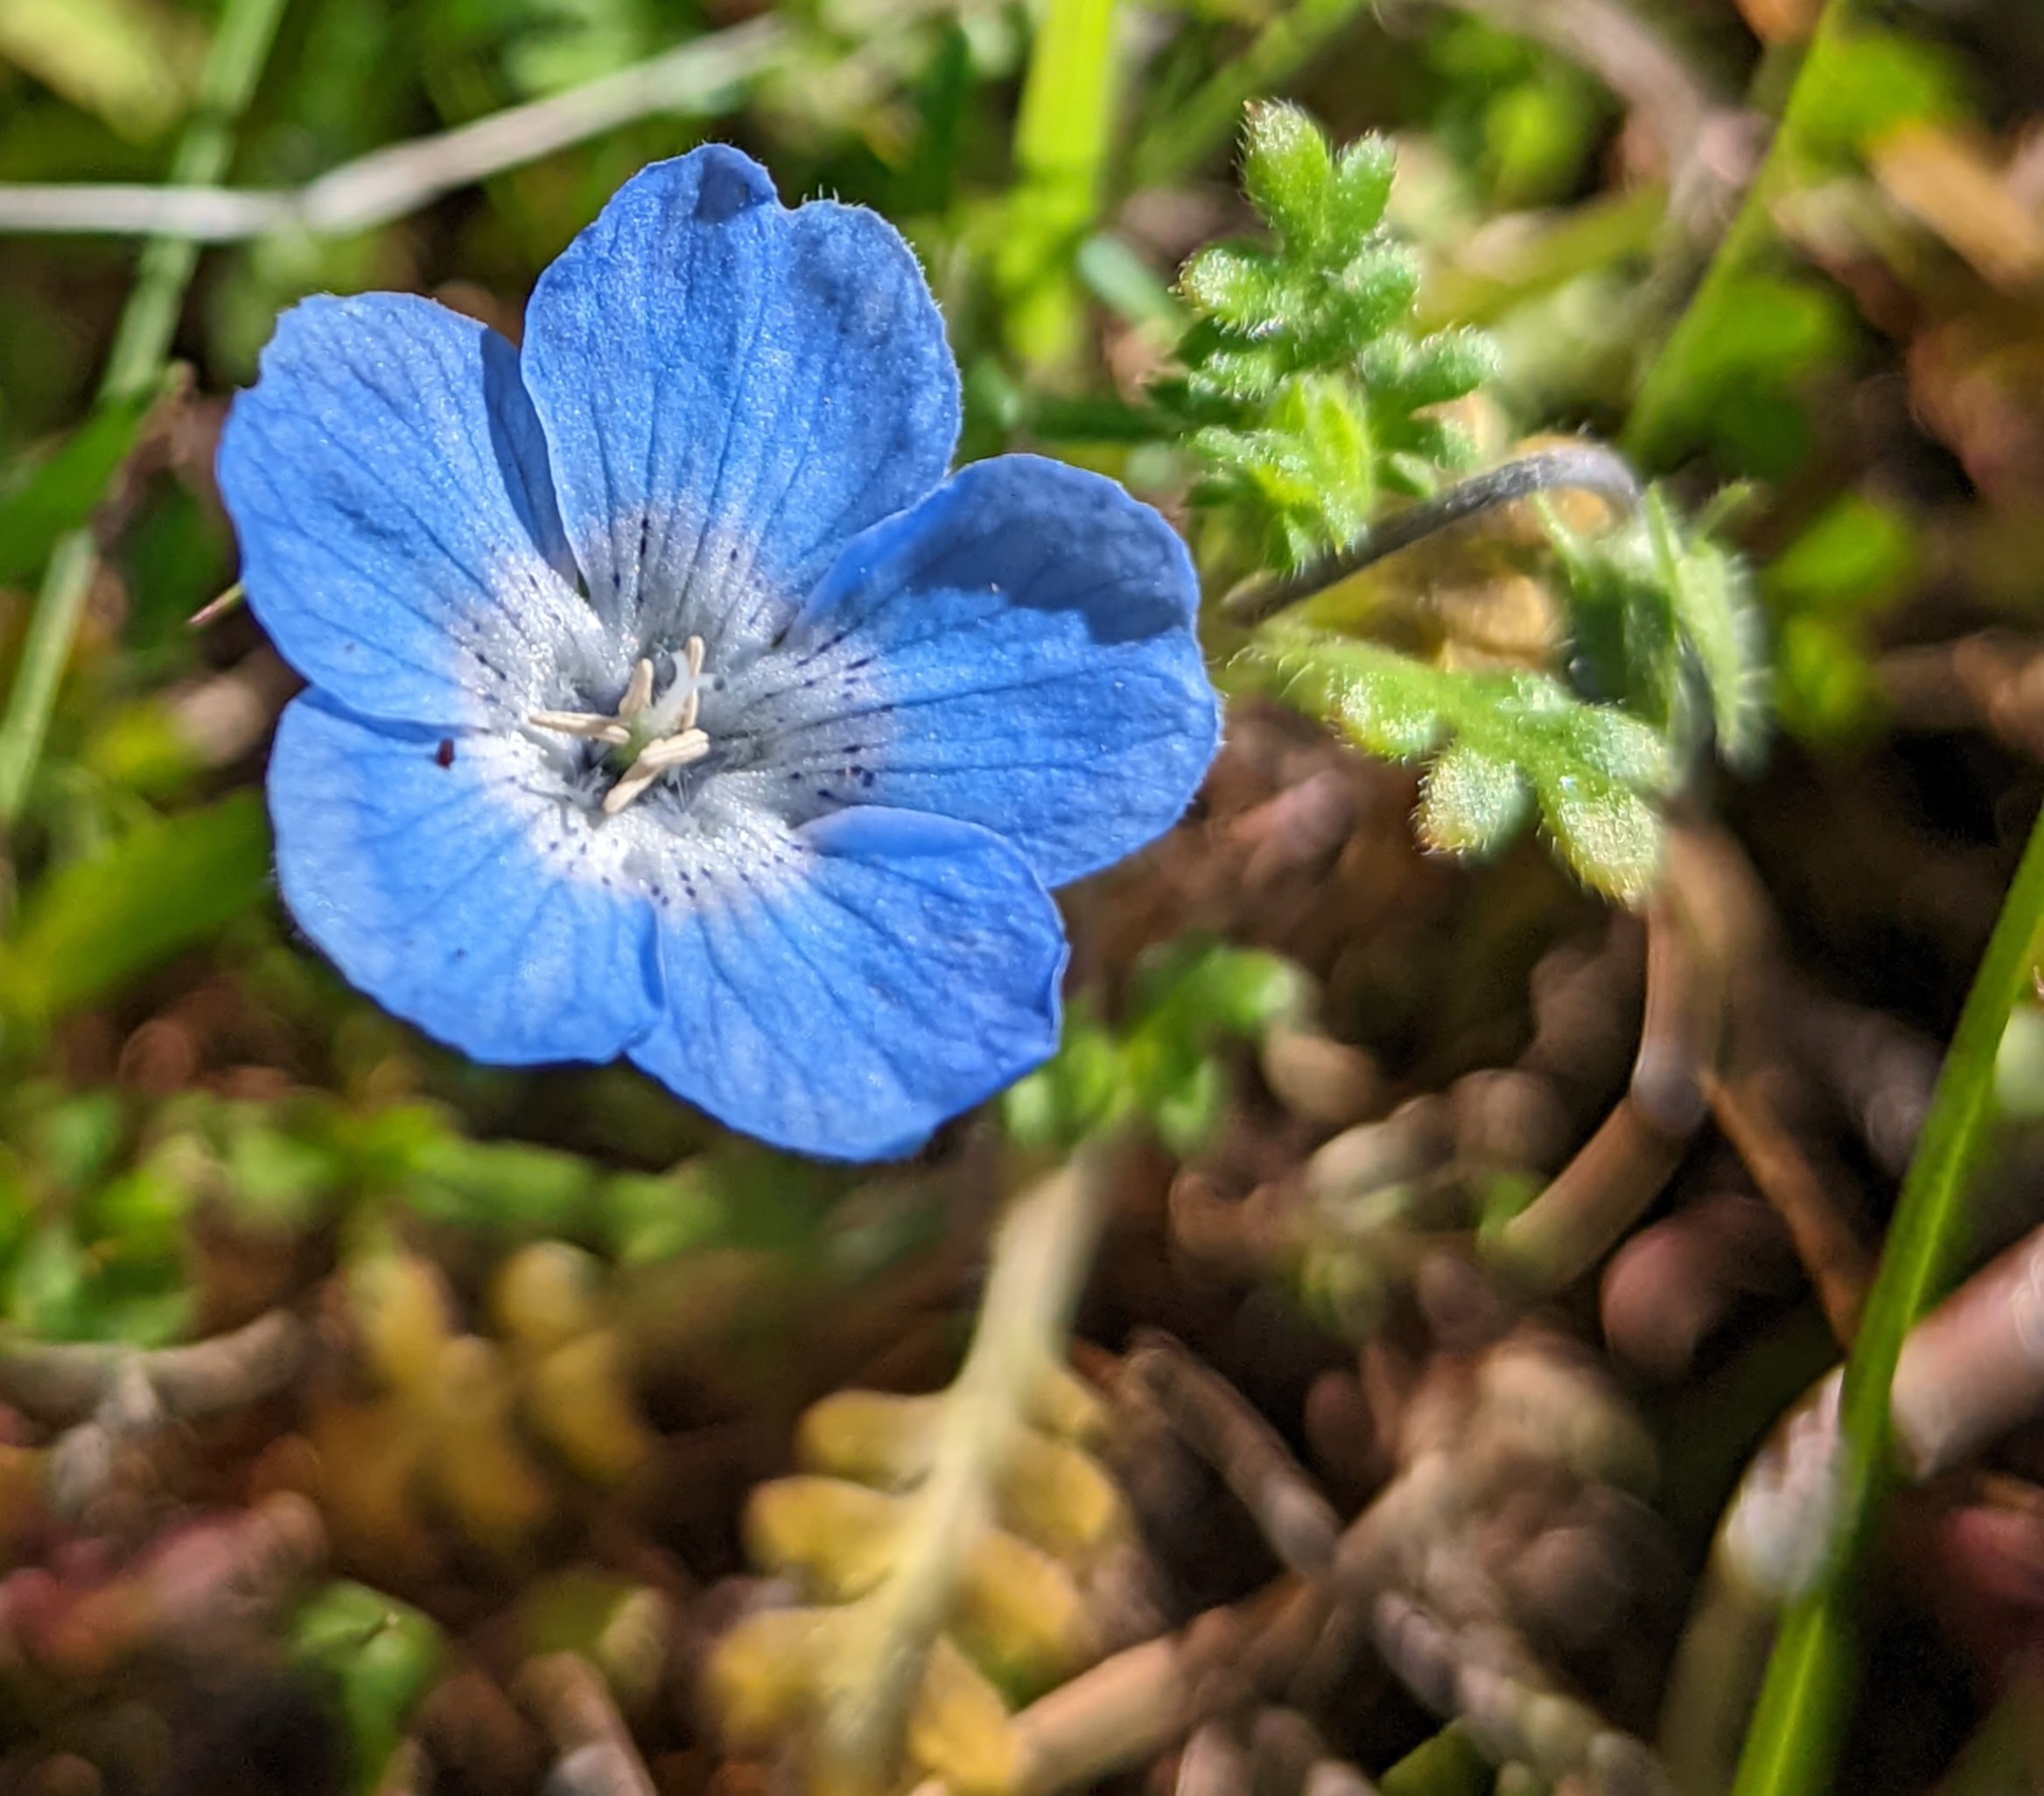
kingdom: Plantae
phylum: Tracheophyta
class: Magnoliopsida
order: Boraginales
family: Hydrophyllaceae
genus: Nemophila
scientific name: Nemophila menziesii
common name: Baby's-blue-eyes
